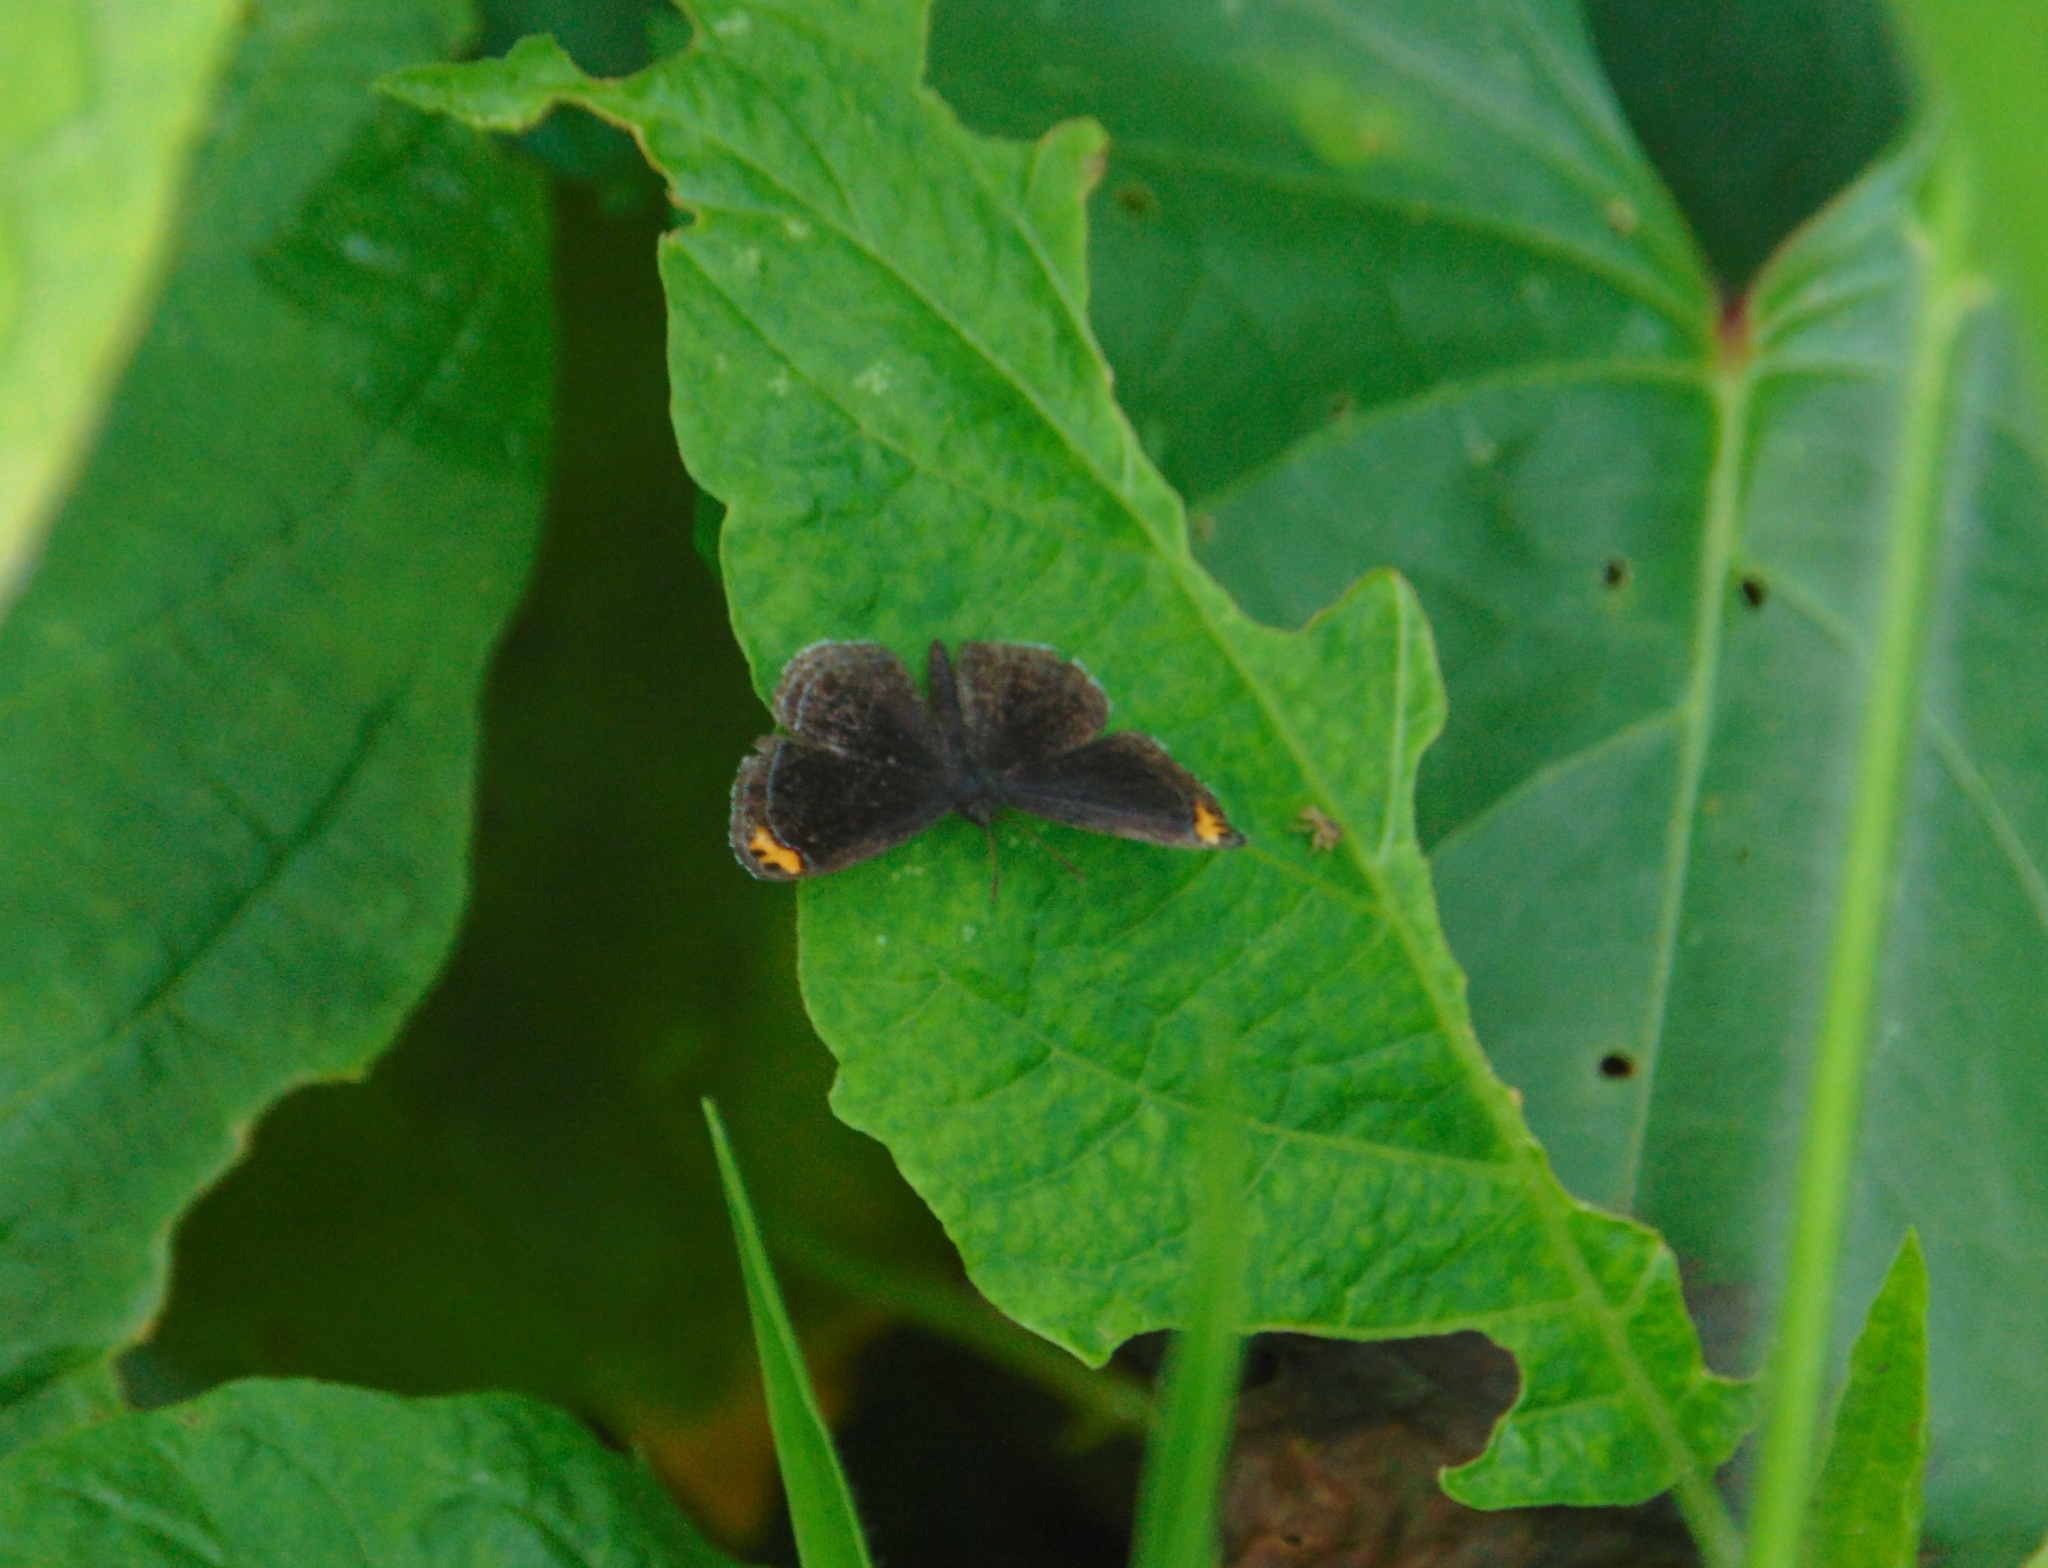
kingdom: Animalia
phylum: Arthropoda
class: Insecta
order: Lepidoptera
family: Riodinidae
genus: Nelone
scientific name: Nelone cadmeis
